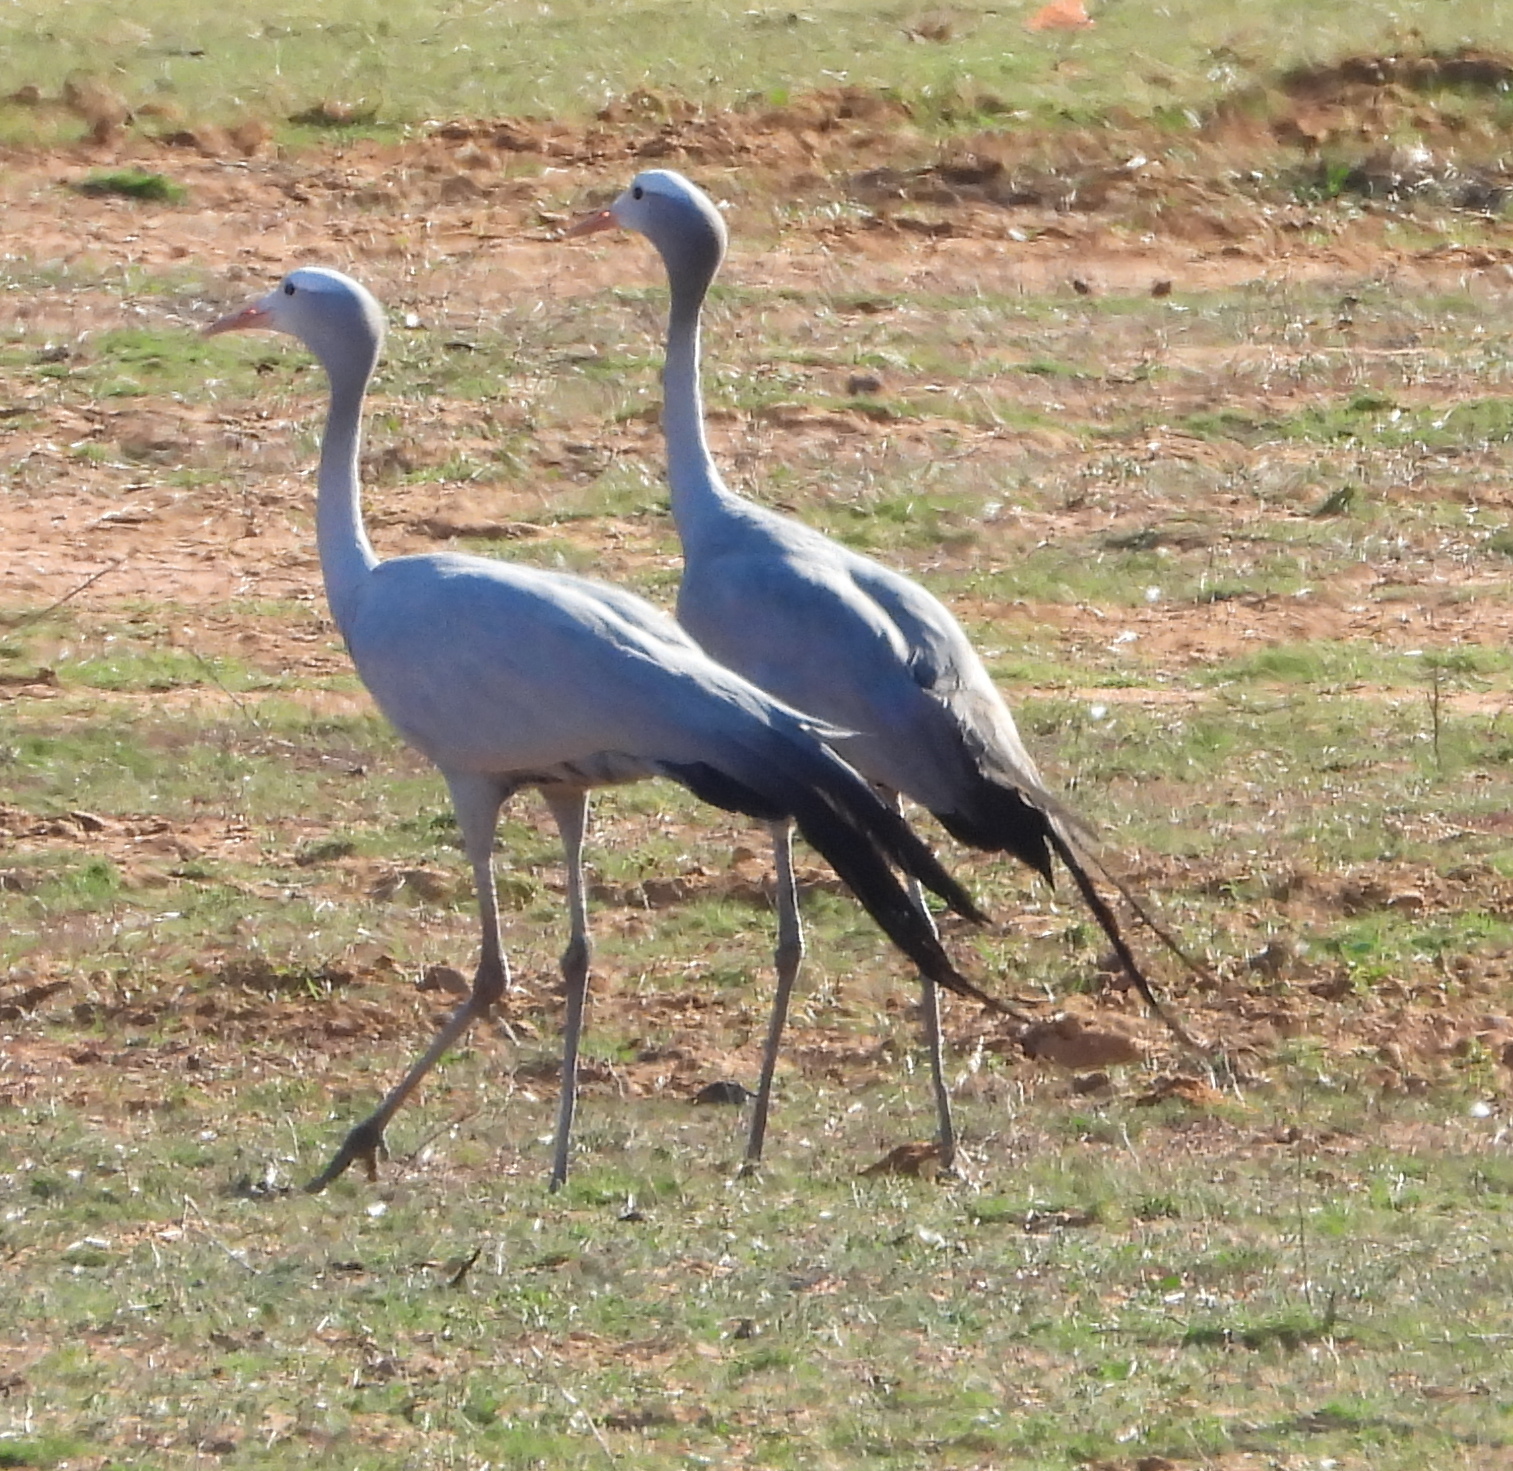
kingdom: Animalia
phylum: Chordata
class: Aves
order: Gruiformes
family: Gruidae
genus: Anthropoides
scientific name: Anthropoides paradiseus
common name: Blue crane
